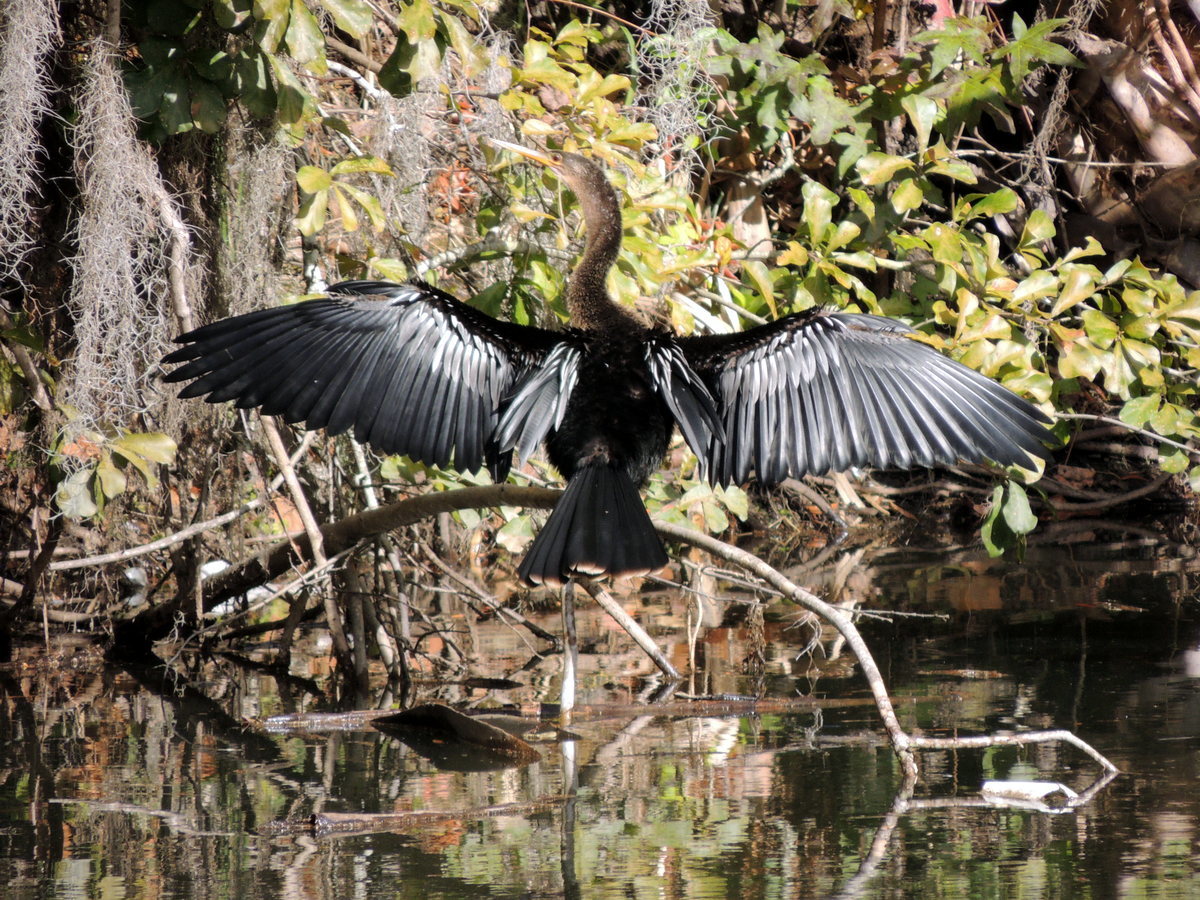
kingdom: Animalia
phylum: Chordata
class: Aves
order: Suliformes
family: Anhingidae
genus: Anhinga
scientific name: Anhinga anhinga
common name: Anhinga
